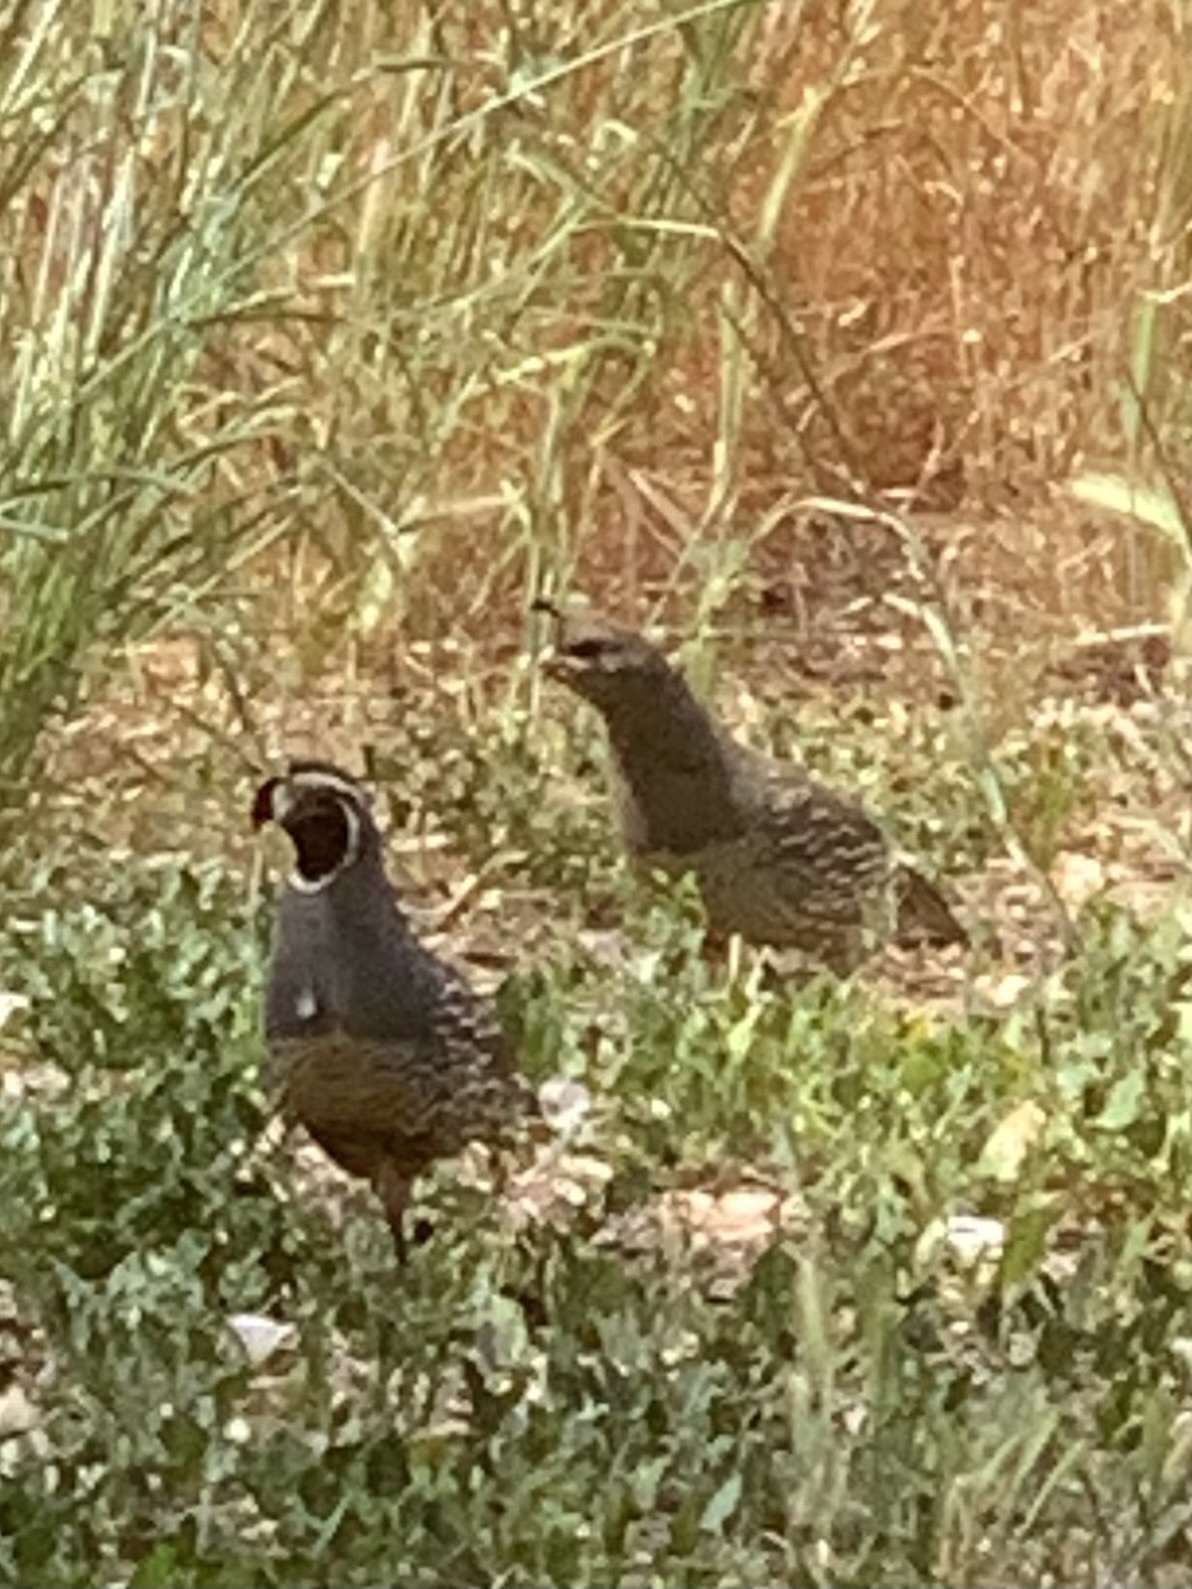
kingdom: Animalia
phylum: Chordata
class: Aves
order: Galliformes
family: Odontophoridae
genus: Callipepla
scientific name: Callipepla californica
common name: California quail
